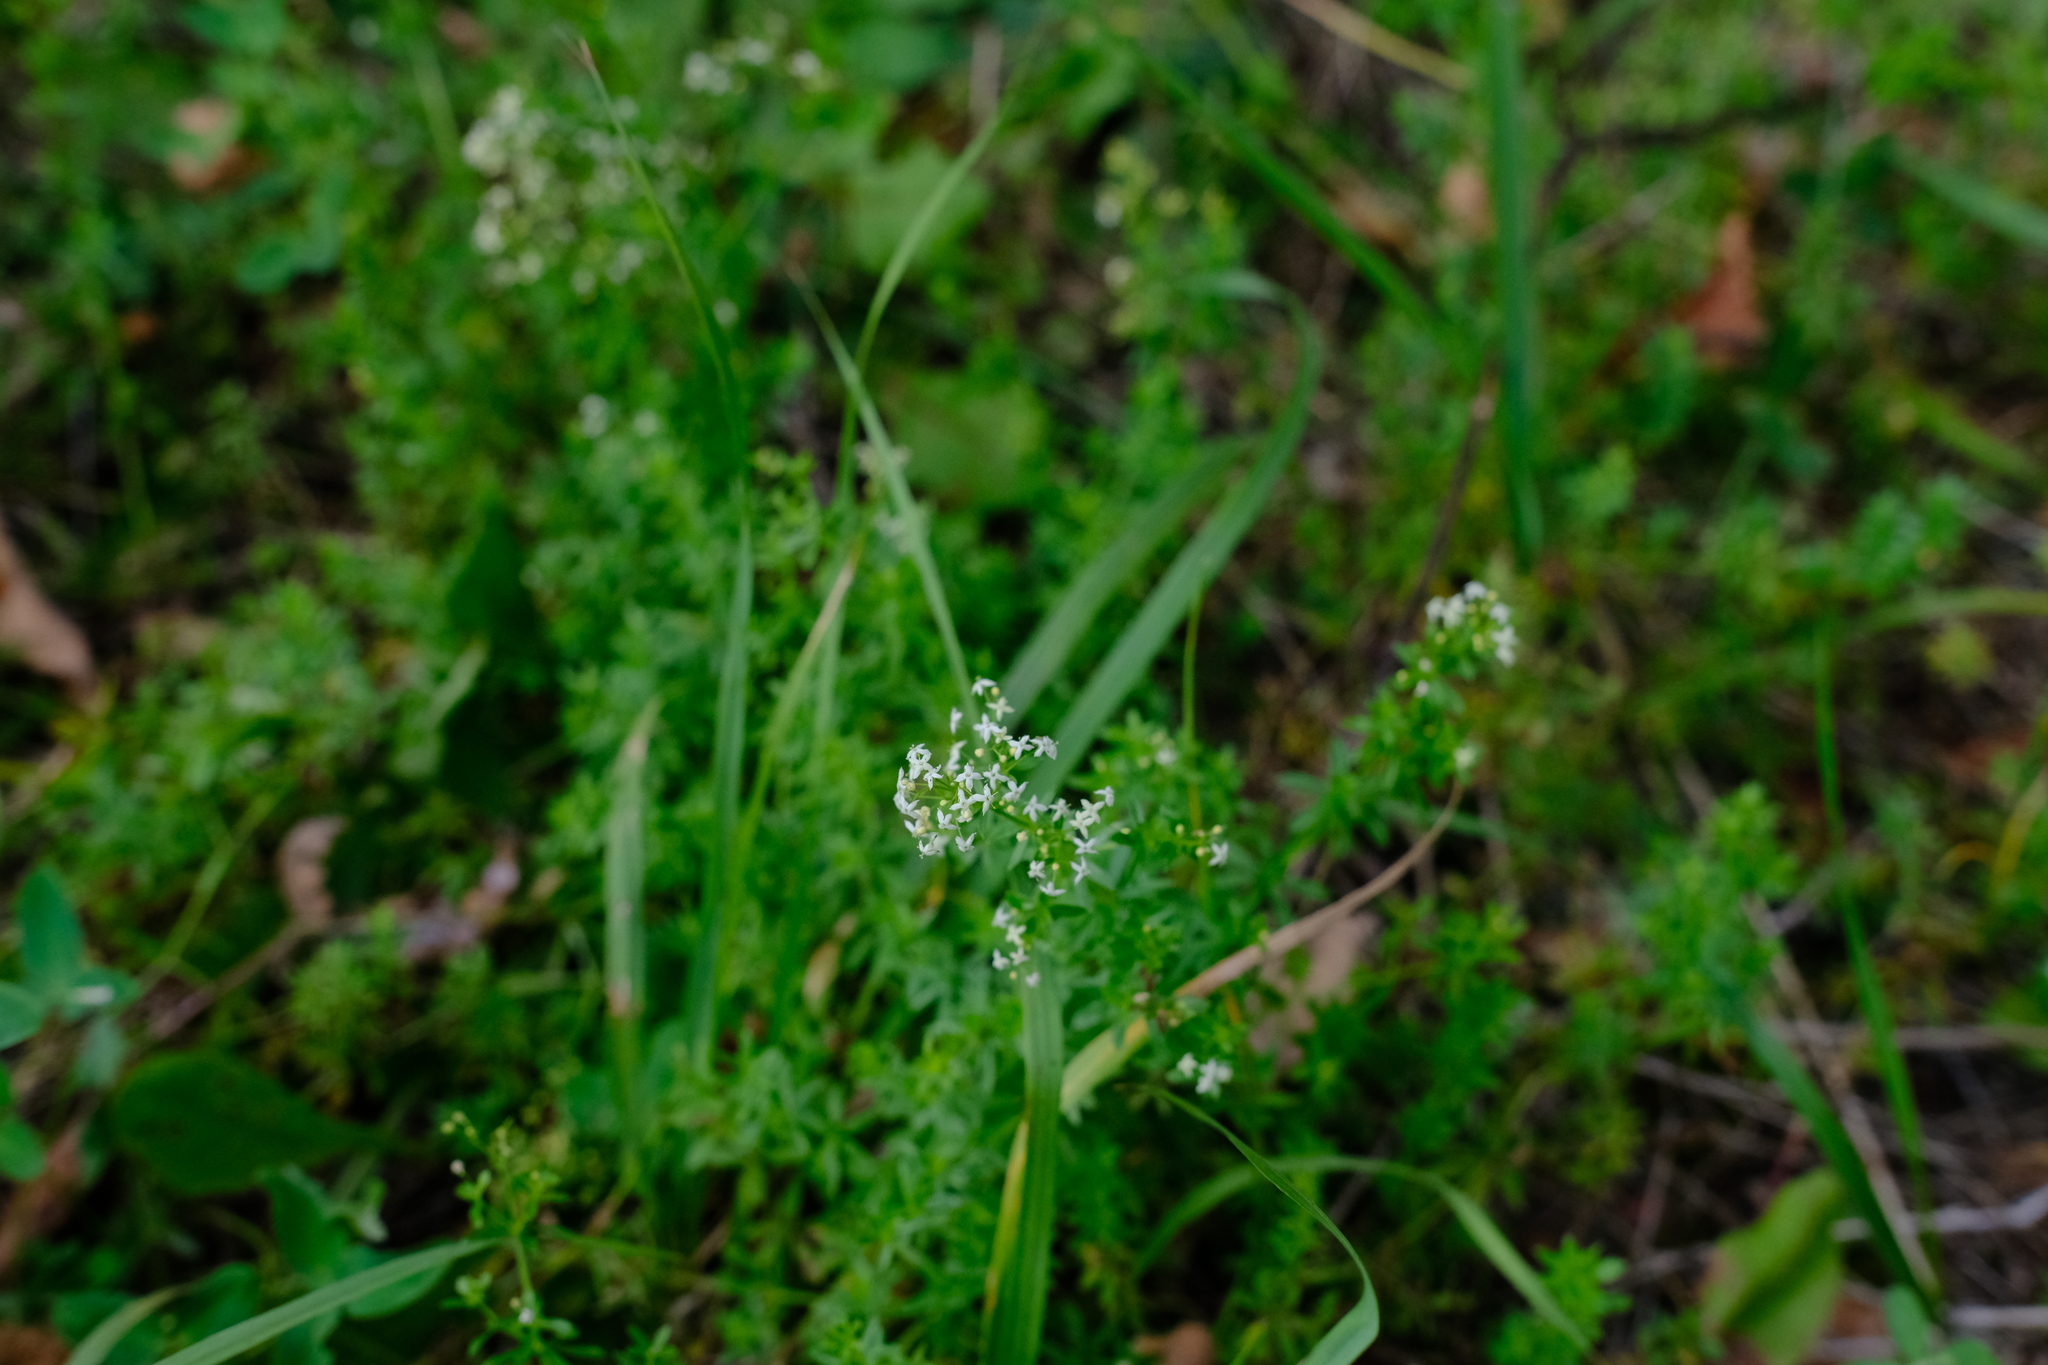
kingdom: Plantae
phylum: Tracheophyta
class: Magnoliopsida
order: Gentianales
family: Rubiaceae
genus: Galium
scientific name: Galium mollugo
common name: Hedge bedstraw
